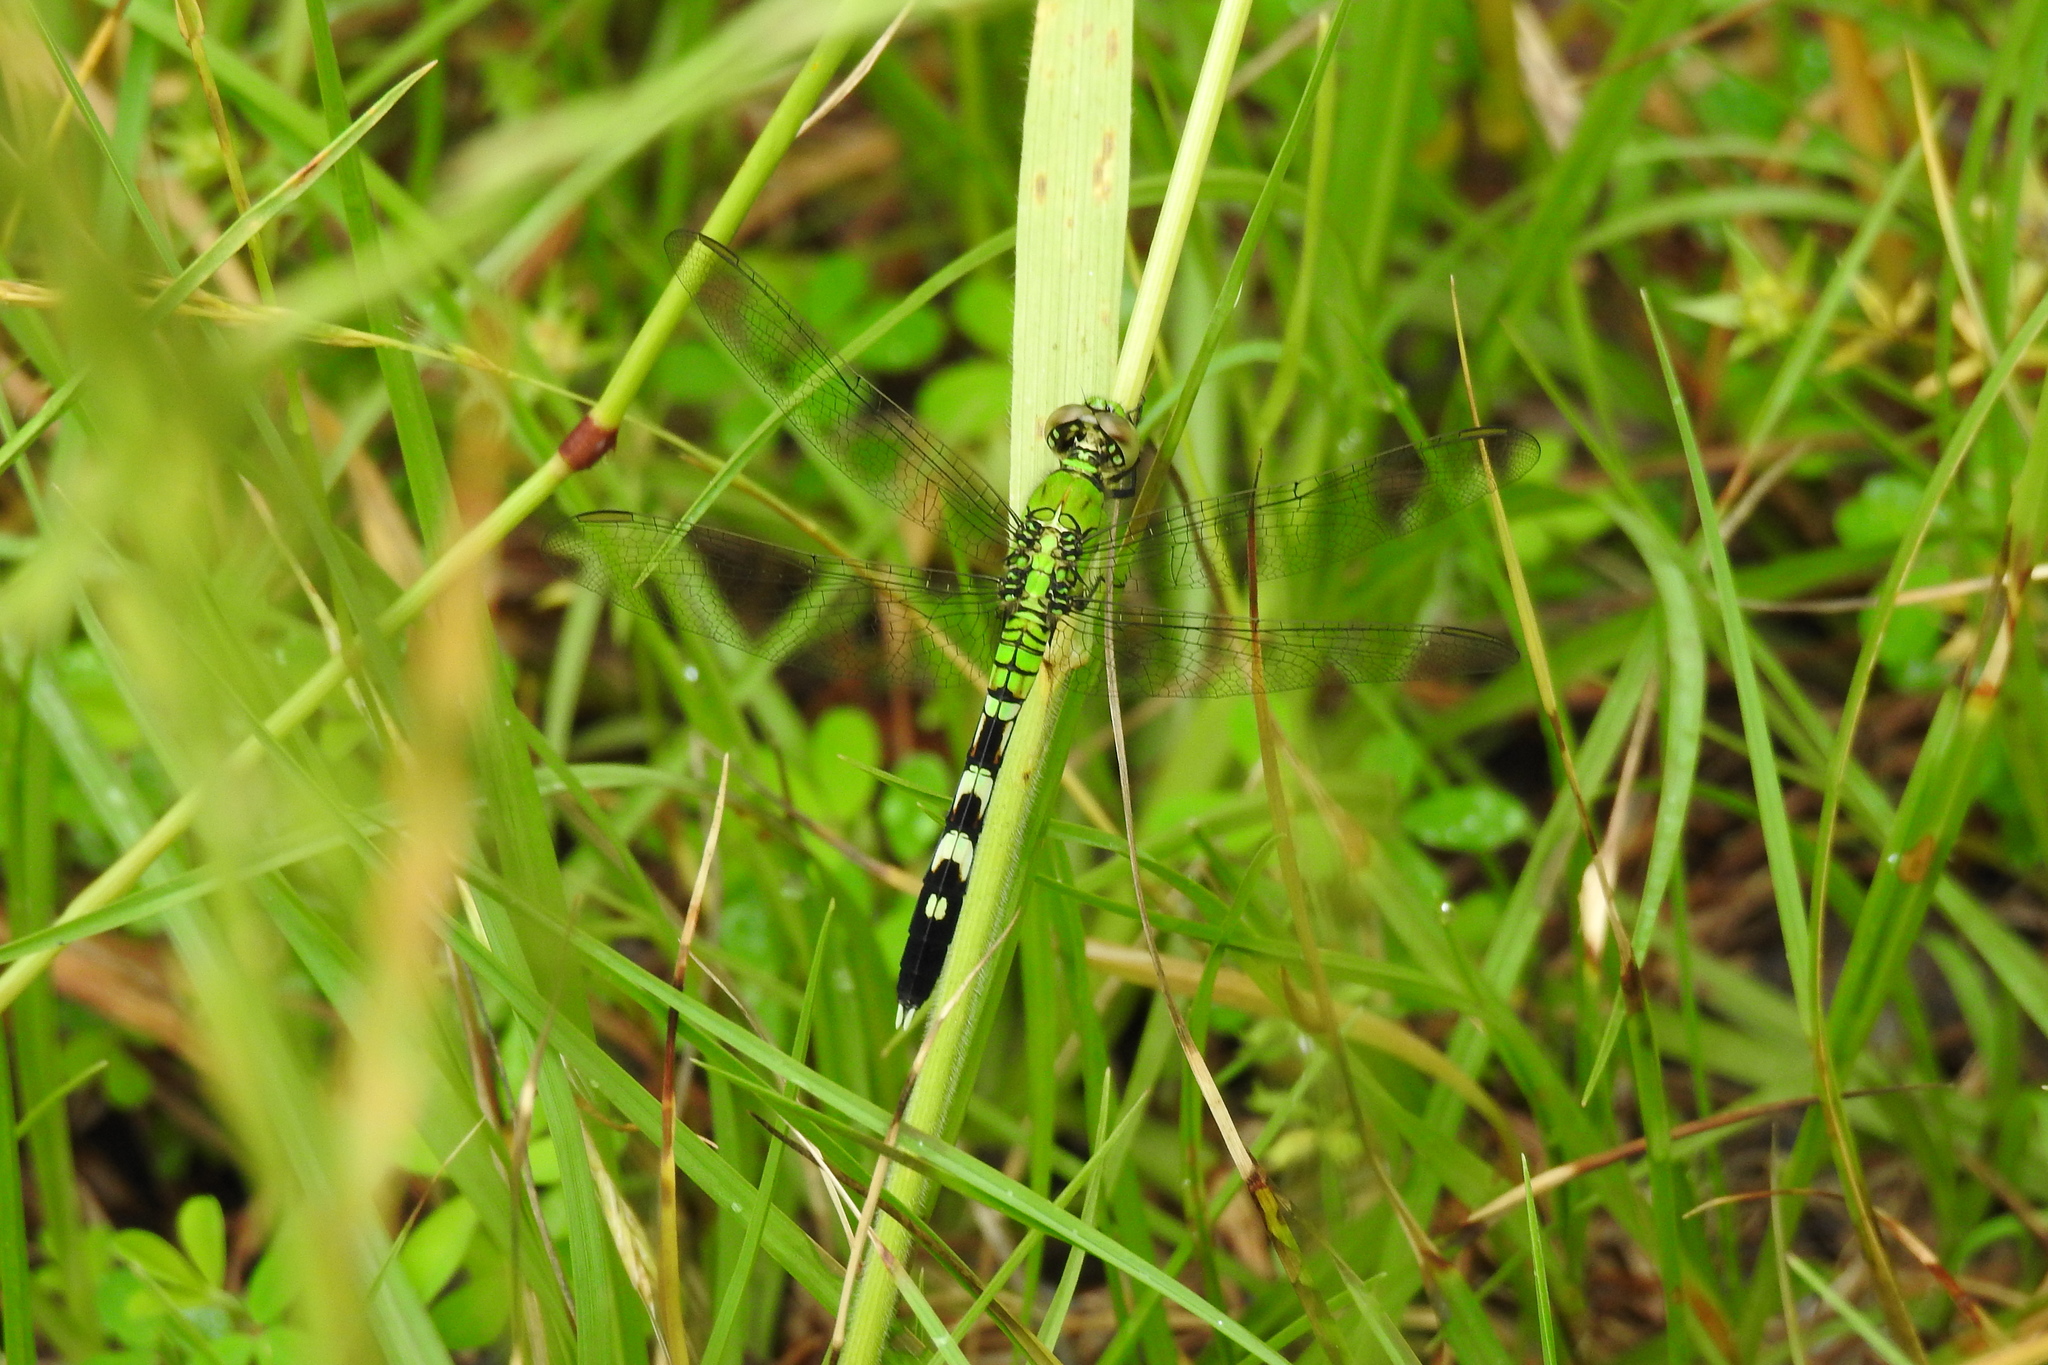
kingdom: Animalia
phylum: Arthropoda
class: Insecta
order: Odonata
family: Libellulidae
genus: Erythemis
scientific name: Erythemis simplicicollis
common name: Eastern pondhawk
